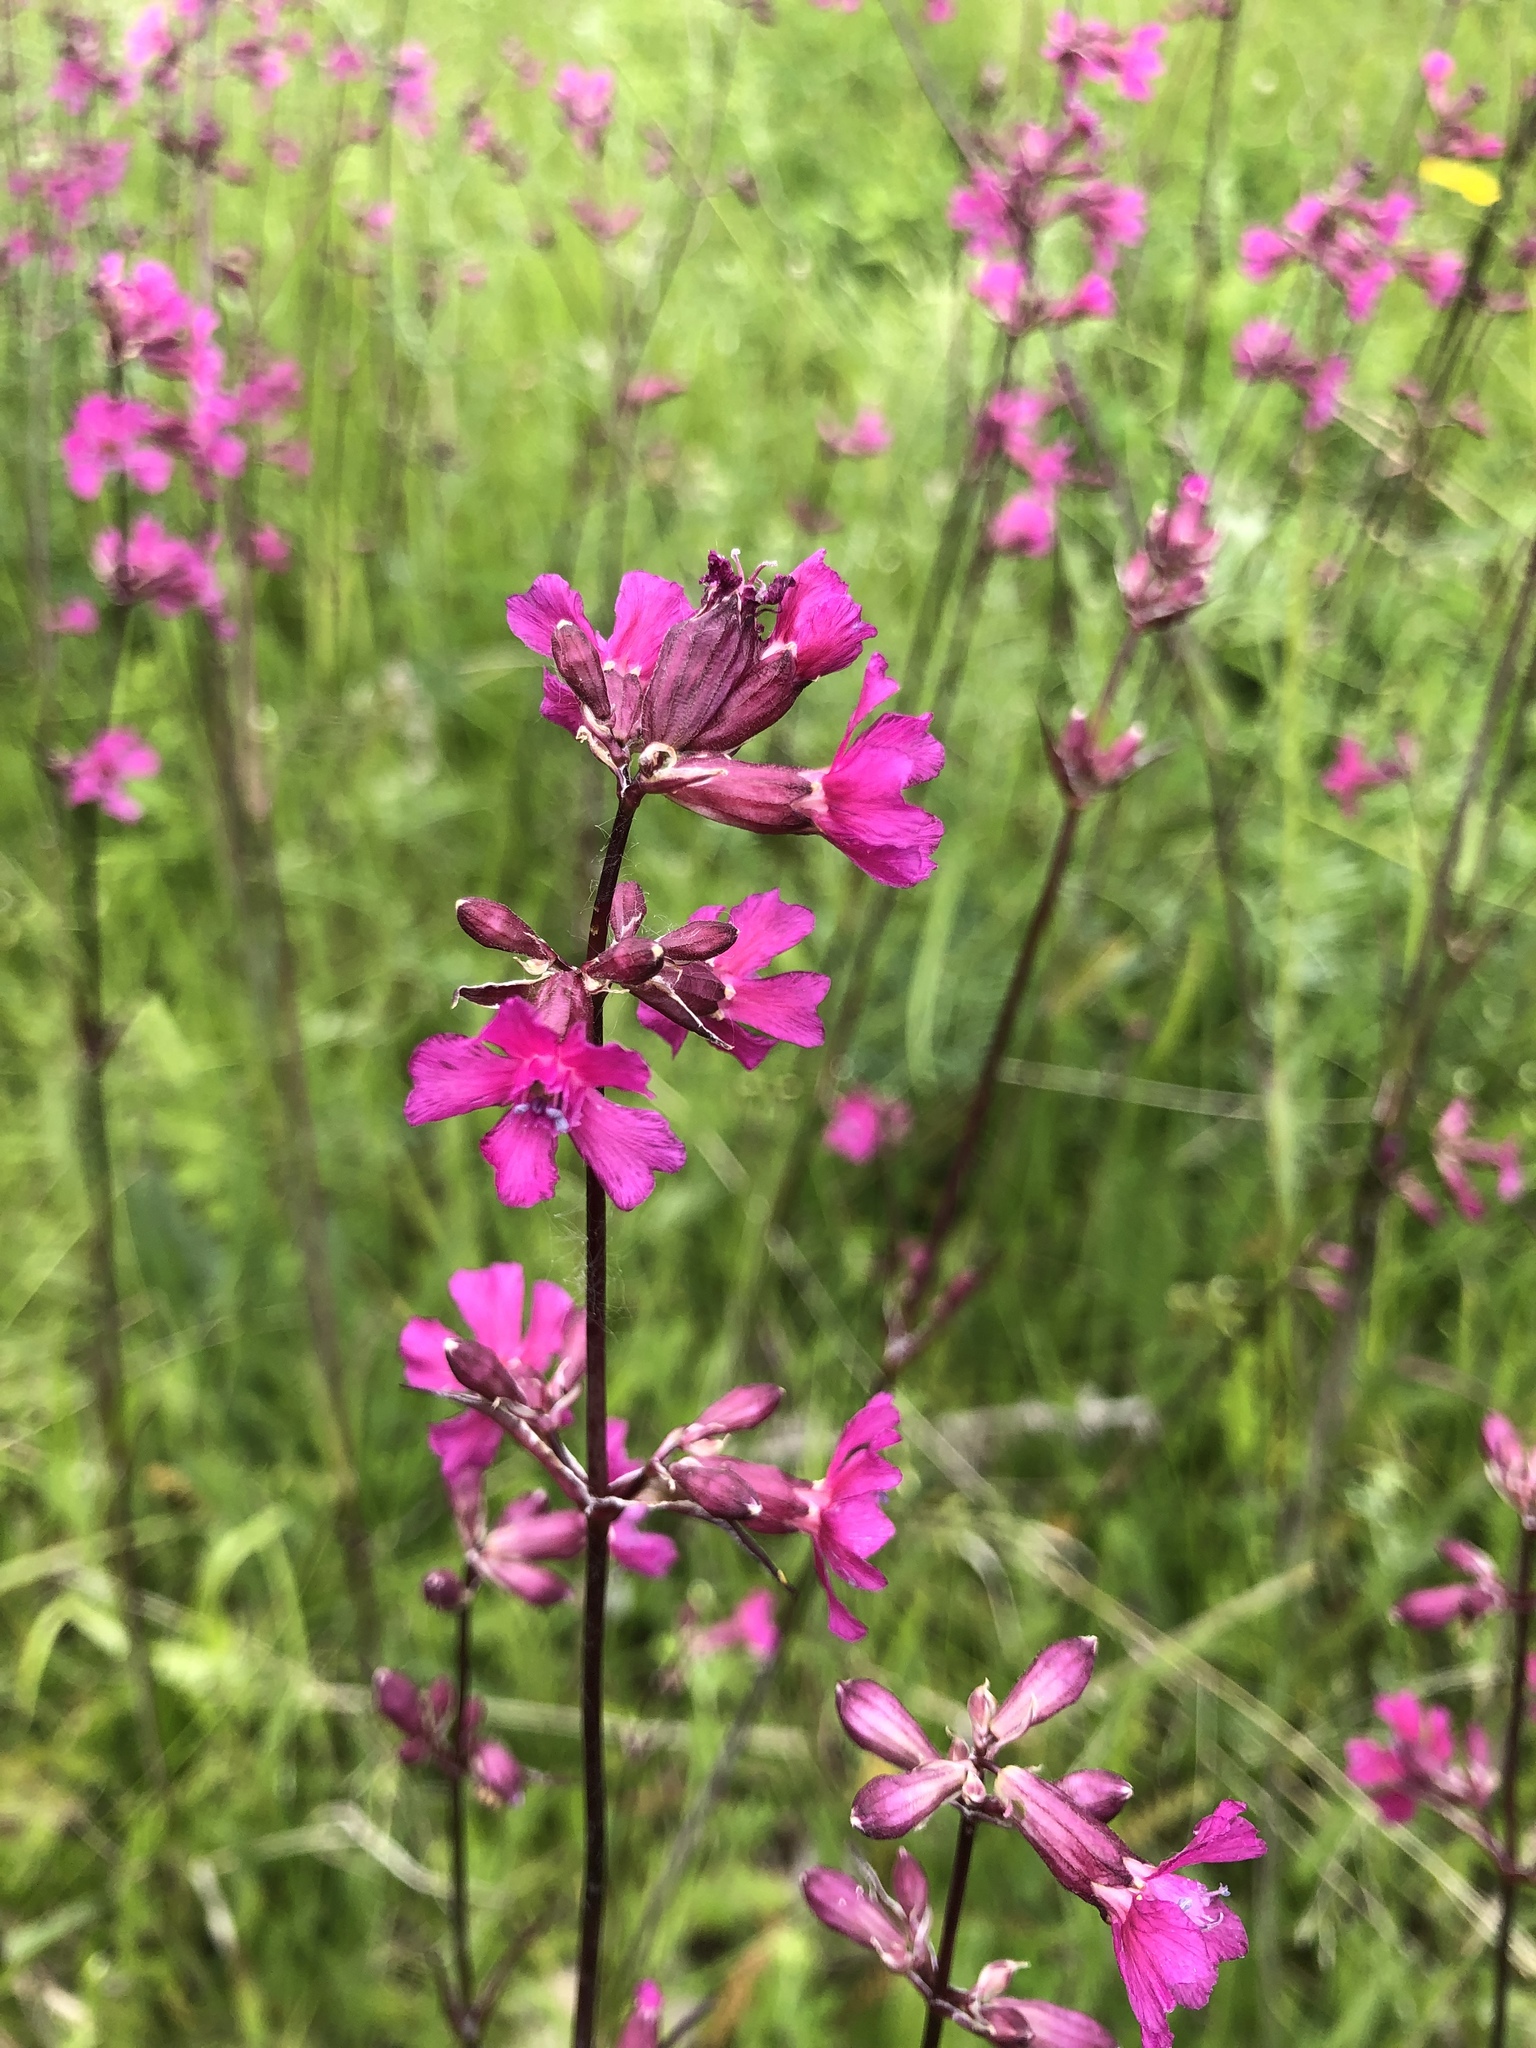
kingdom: Plantae
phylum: Tracheophyta
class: Magnoliopsida
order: Caryophyllales
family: Caryophyllaceae
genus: Viscaria
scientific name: Viscaria vulgaris
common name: Clammy campion
